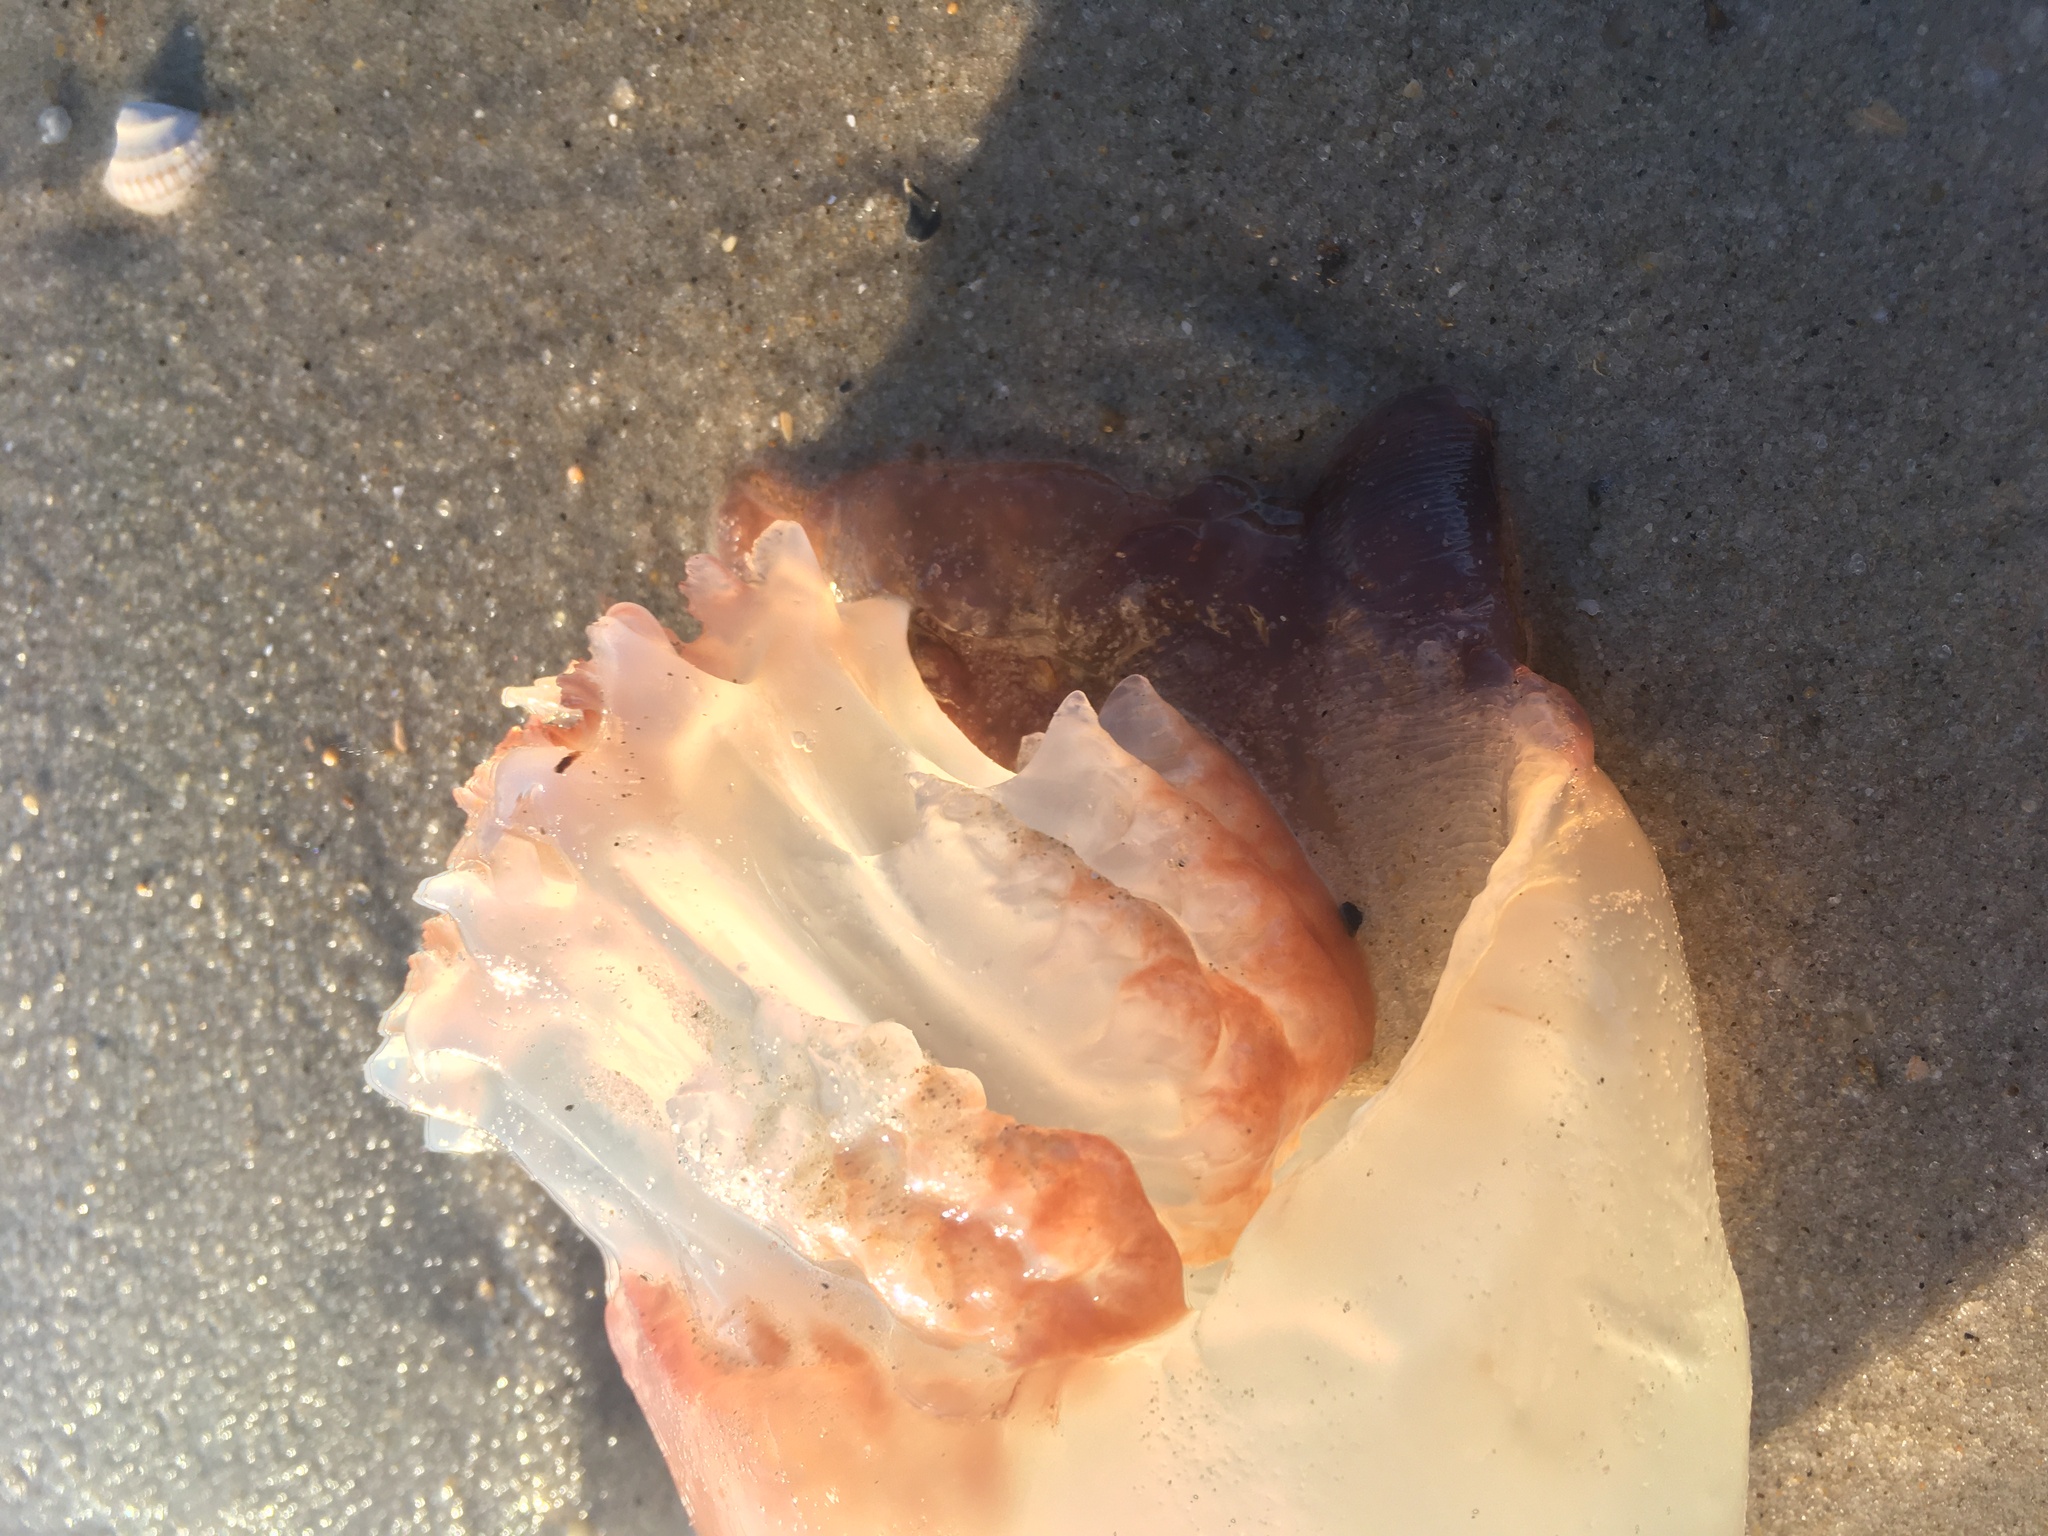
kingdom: Animalia
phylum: Cnidaria
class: Scyphozoa
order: Rhizostomeae
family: Stomolophidae
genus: Stomolophus
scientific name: Stomolophus meleagris
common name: Cabbagehead
